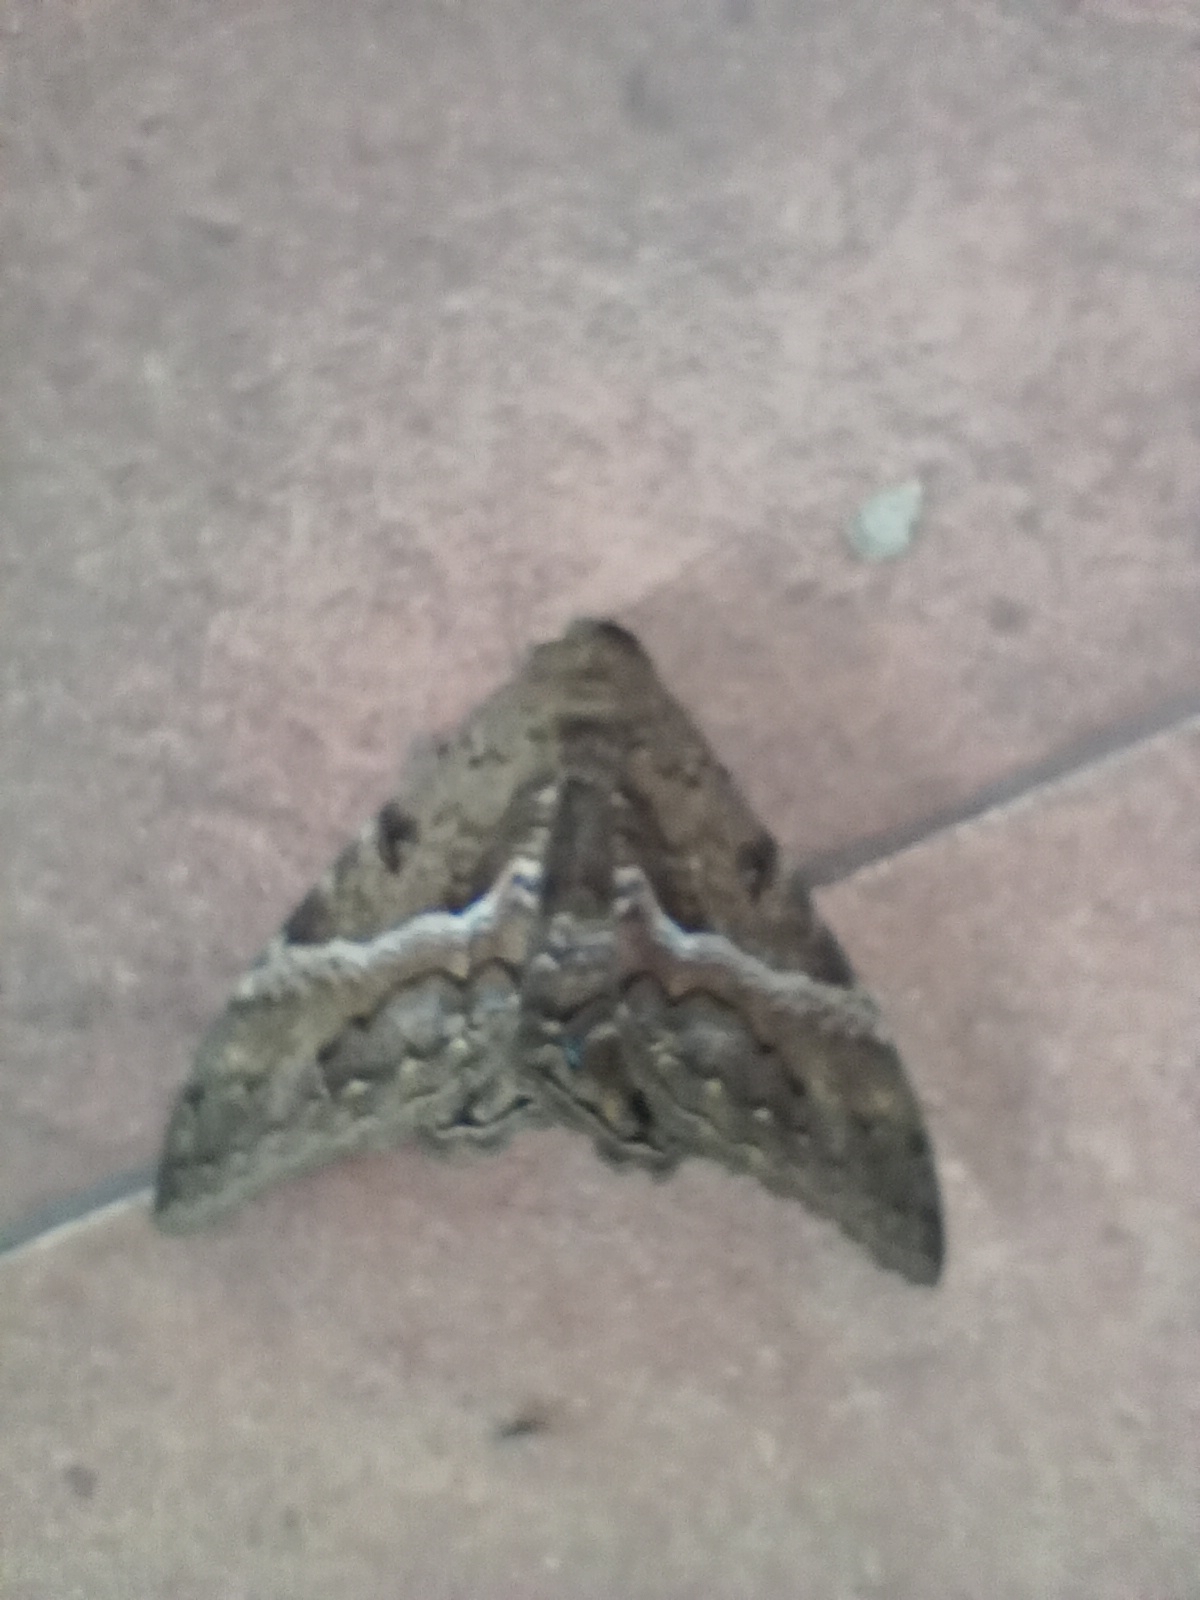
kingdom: Animalia
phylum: Arthropoda
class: Insecta
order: Lepidoptera
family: Erebidae
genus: Ascalapha
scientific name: Ascalapha odorata
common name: Black witch
